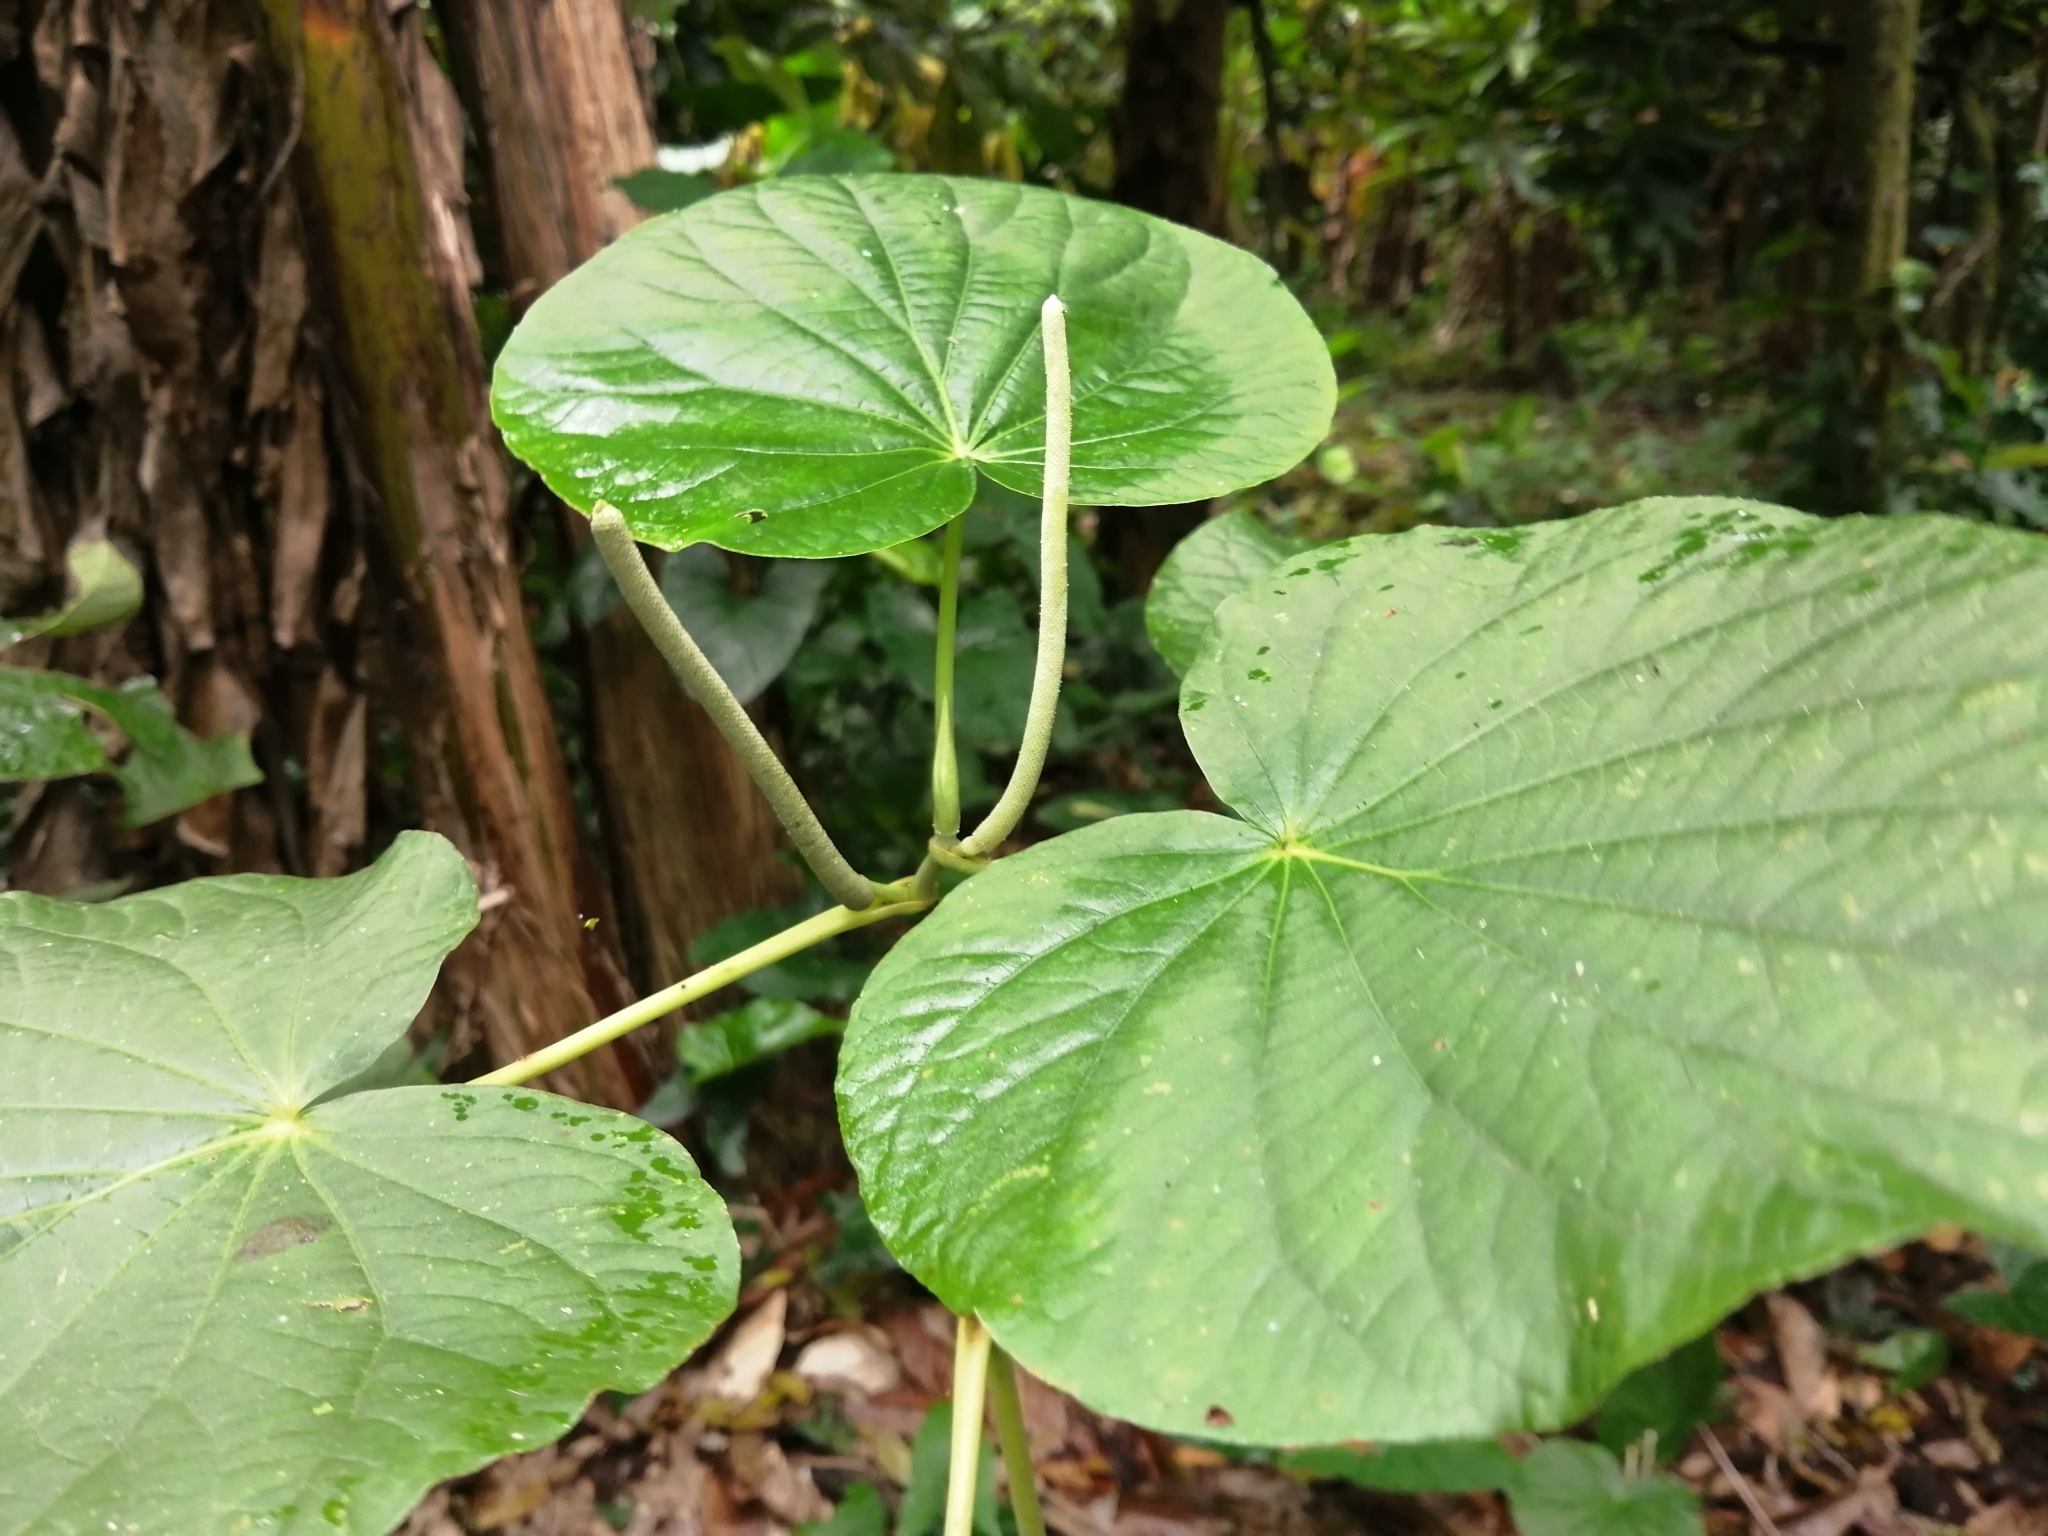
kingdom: Plantae
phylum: Tracheophyta
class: Magnoliopsida
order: Piperales
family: Piperaceae
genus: Piper
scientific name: Piper peltatum
